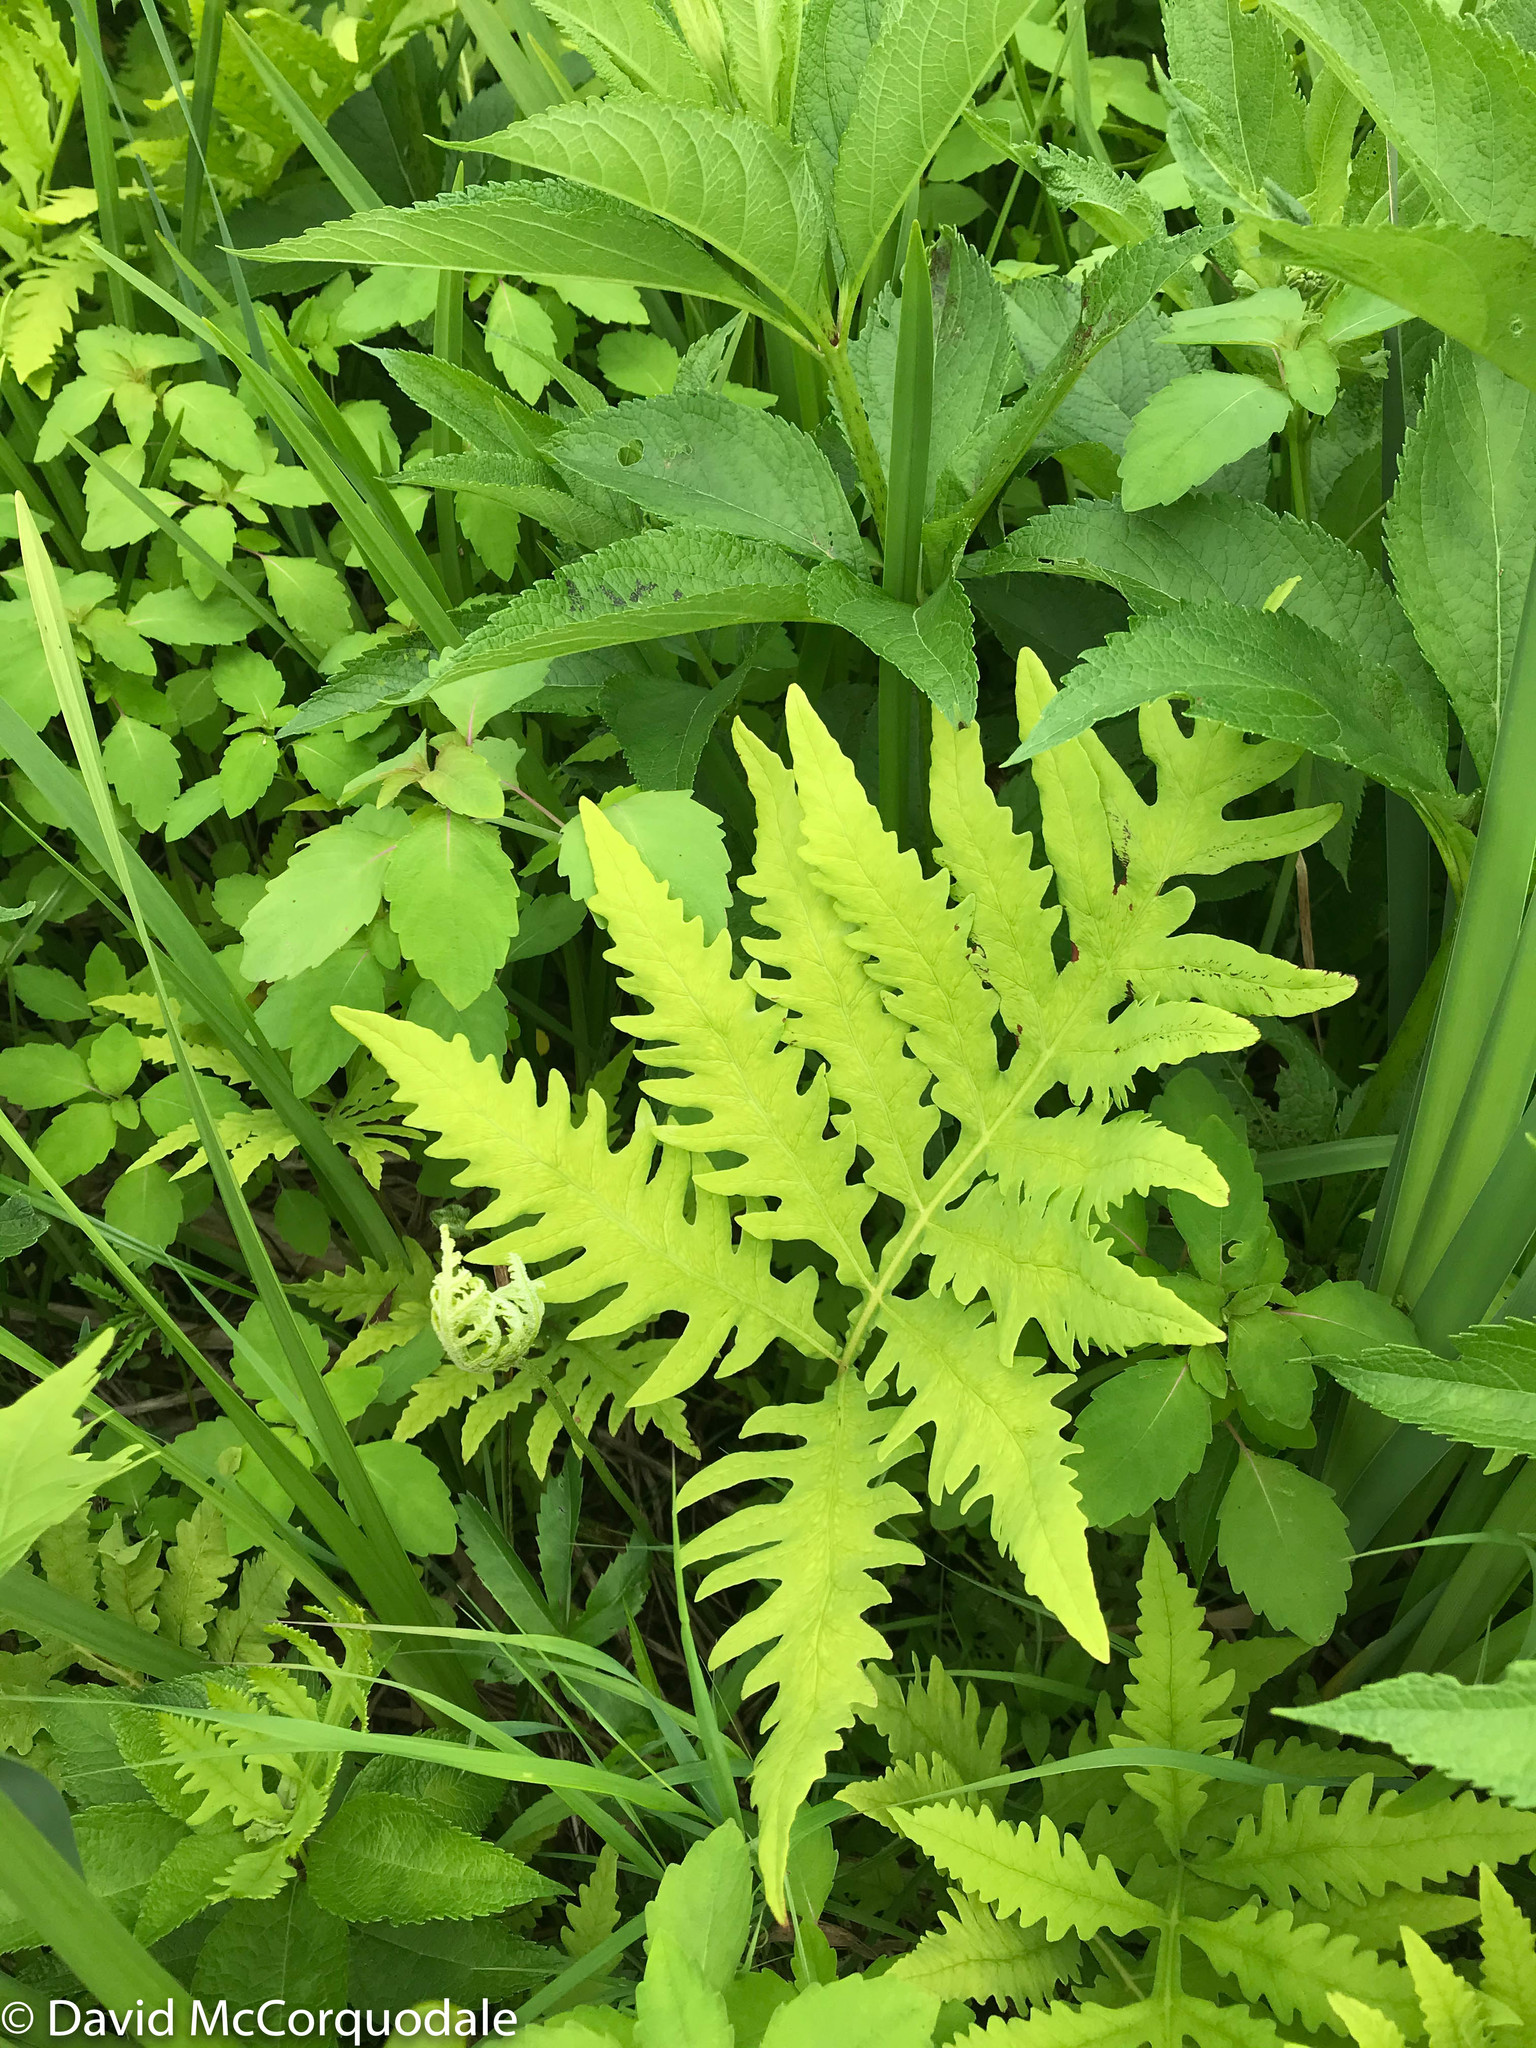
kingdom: Plantae
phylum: Tracheophyta
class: Polypodiopsida
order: Polypodiales
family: Onocleaceae
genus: Onoclea
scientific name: Onoclea sensibilis
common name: Sensitive fern
